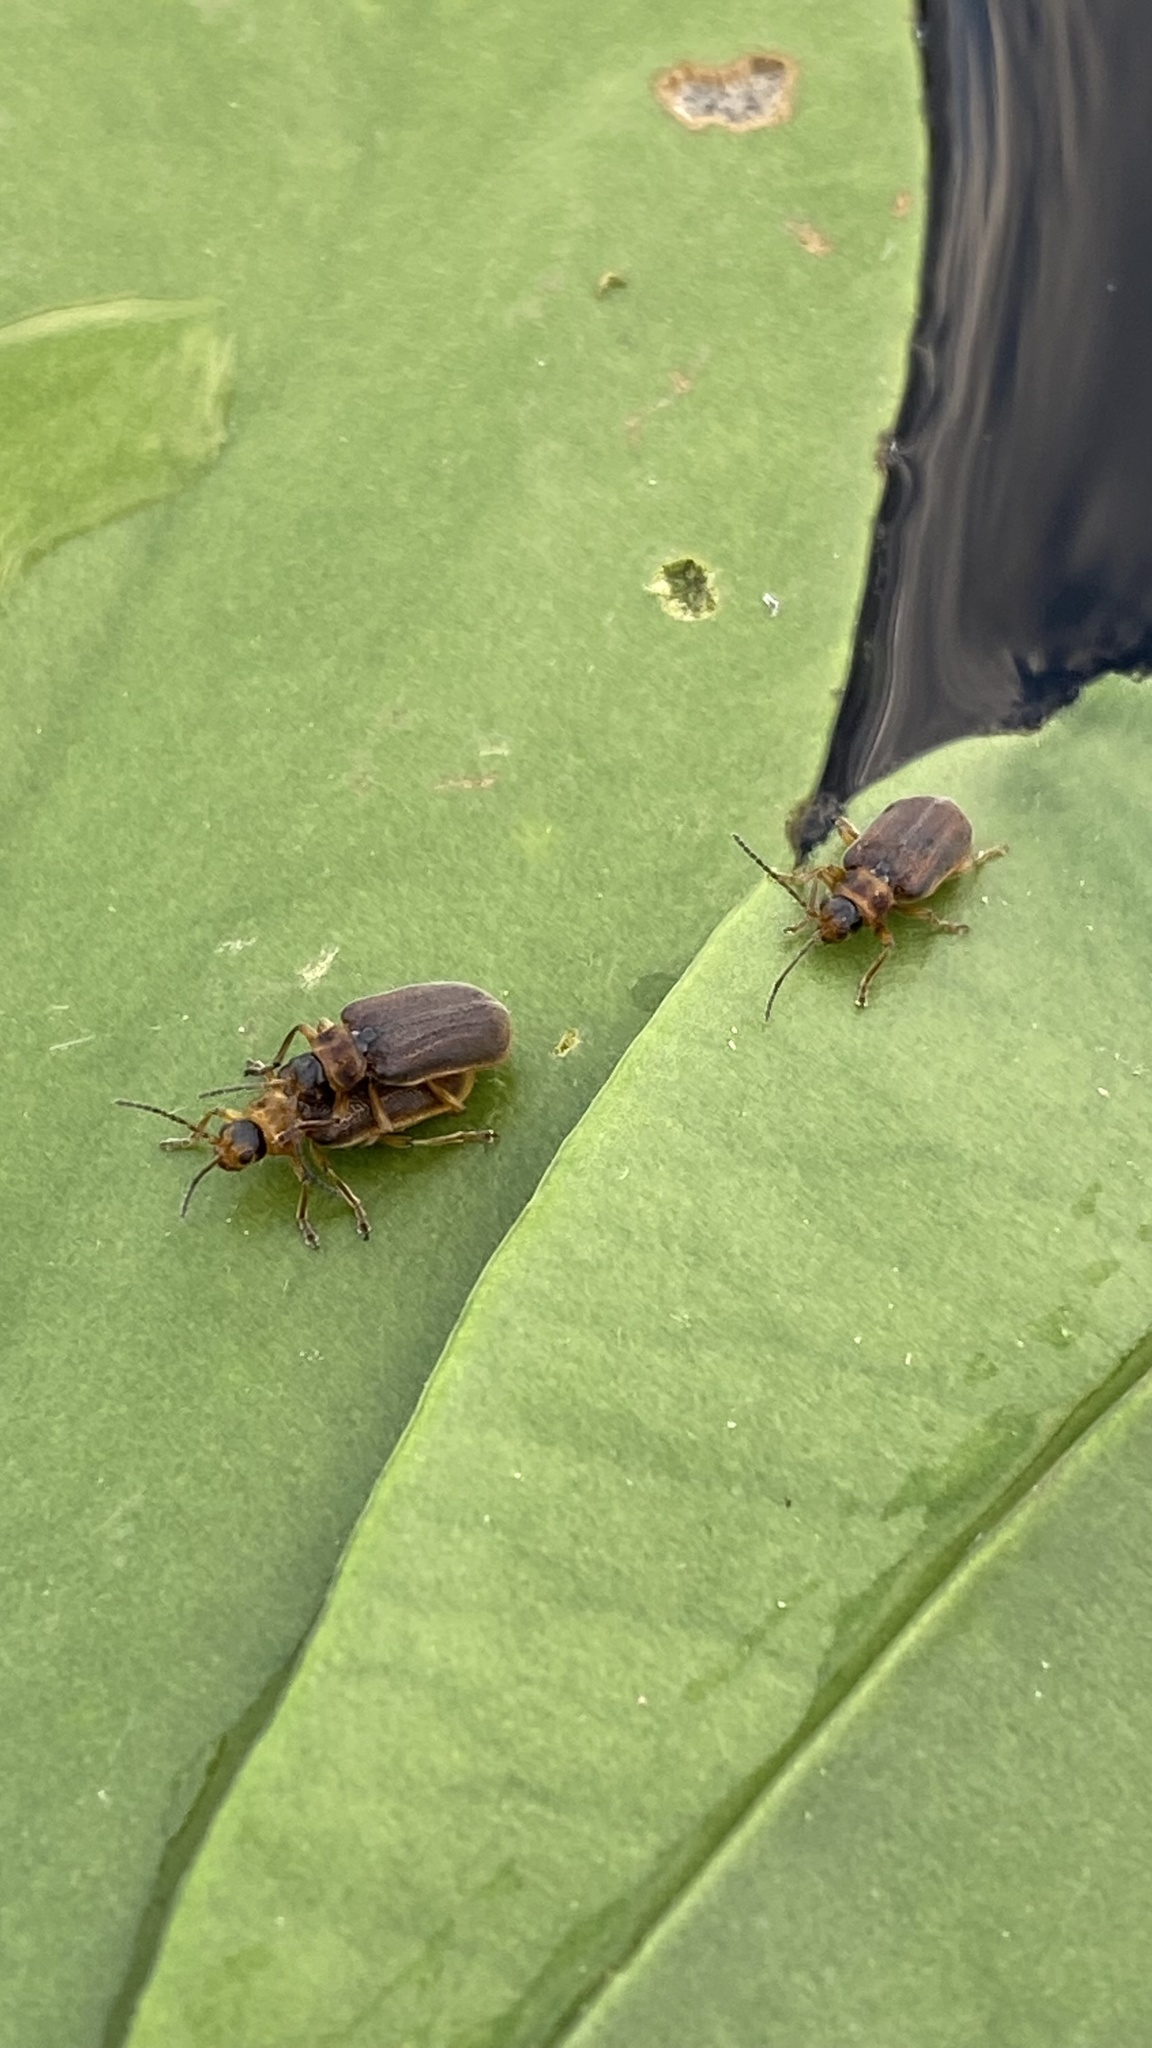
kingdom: Animalia
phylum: Arthropoda
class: Insecta
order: Coleoptera
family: Chrysomelidae
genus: Galerucella
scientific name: Galerucella nymphaeae
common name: Leaf beetle
